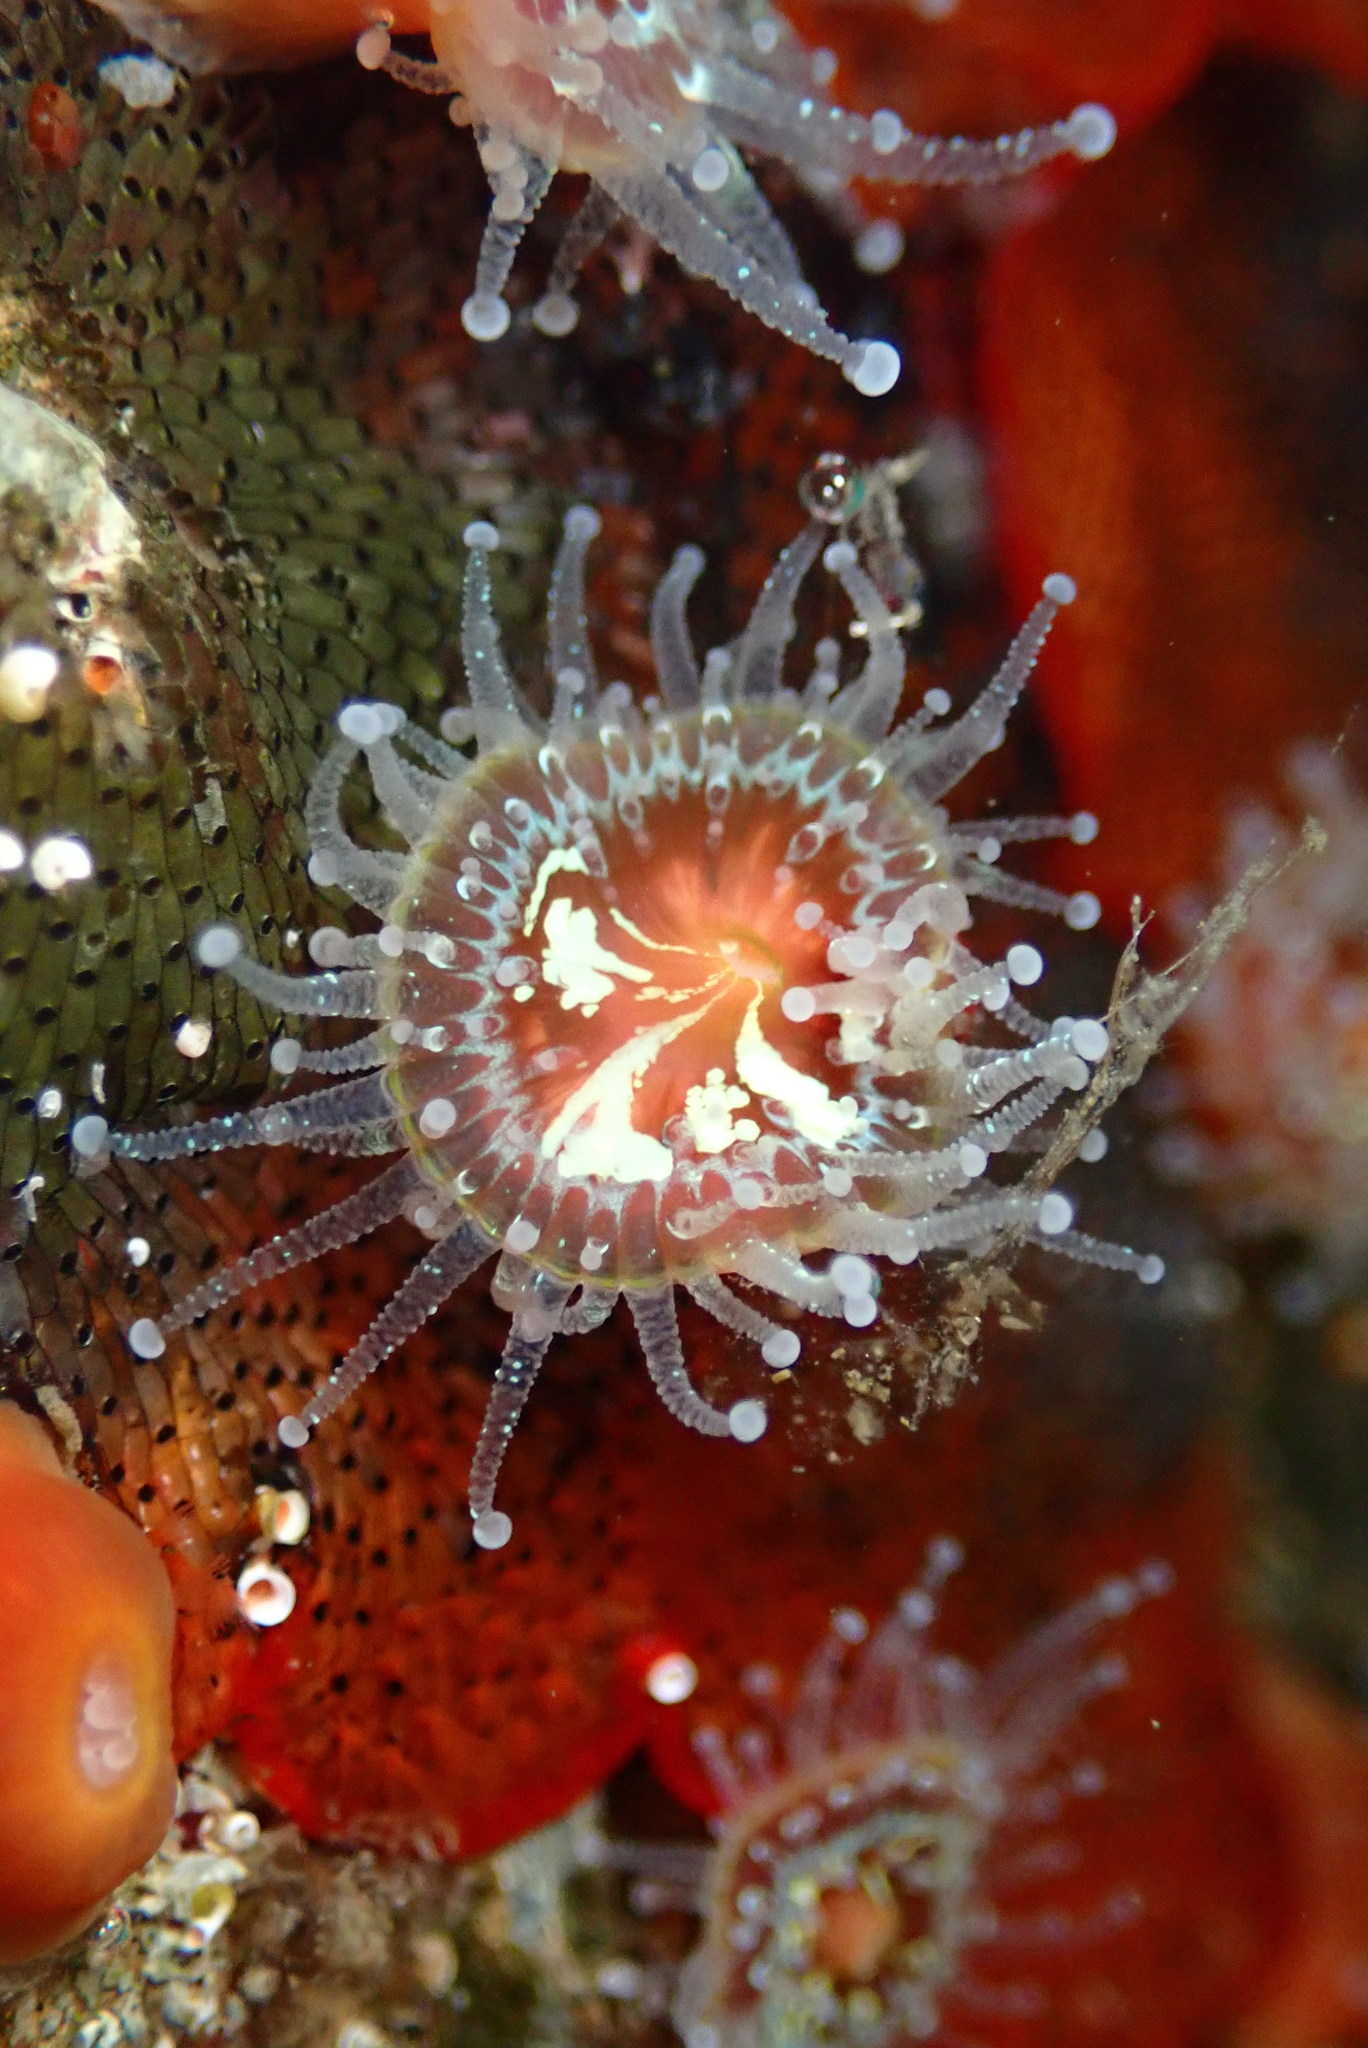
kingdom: Animalia
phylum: Cnidaria
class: Anthozoa
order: Corallimorpharia
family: Corallimorphidae
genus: Corynactis
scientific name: Corynactis californica
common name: Strawberry corallimorpharian
